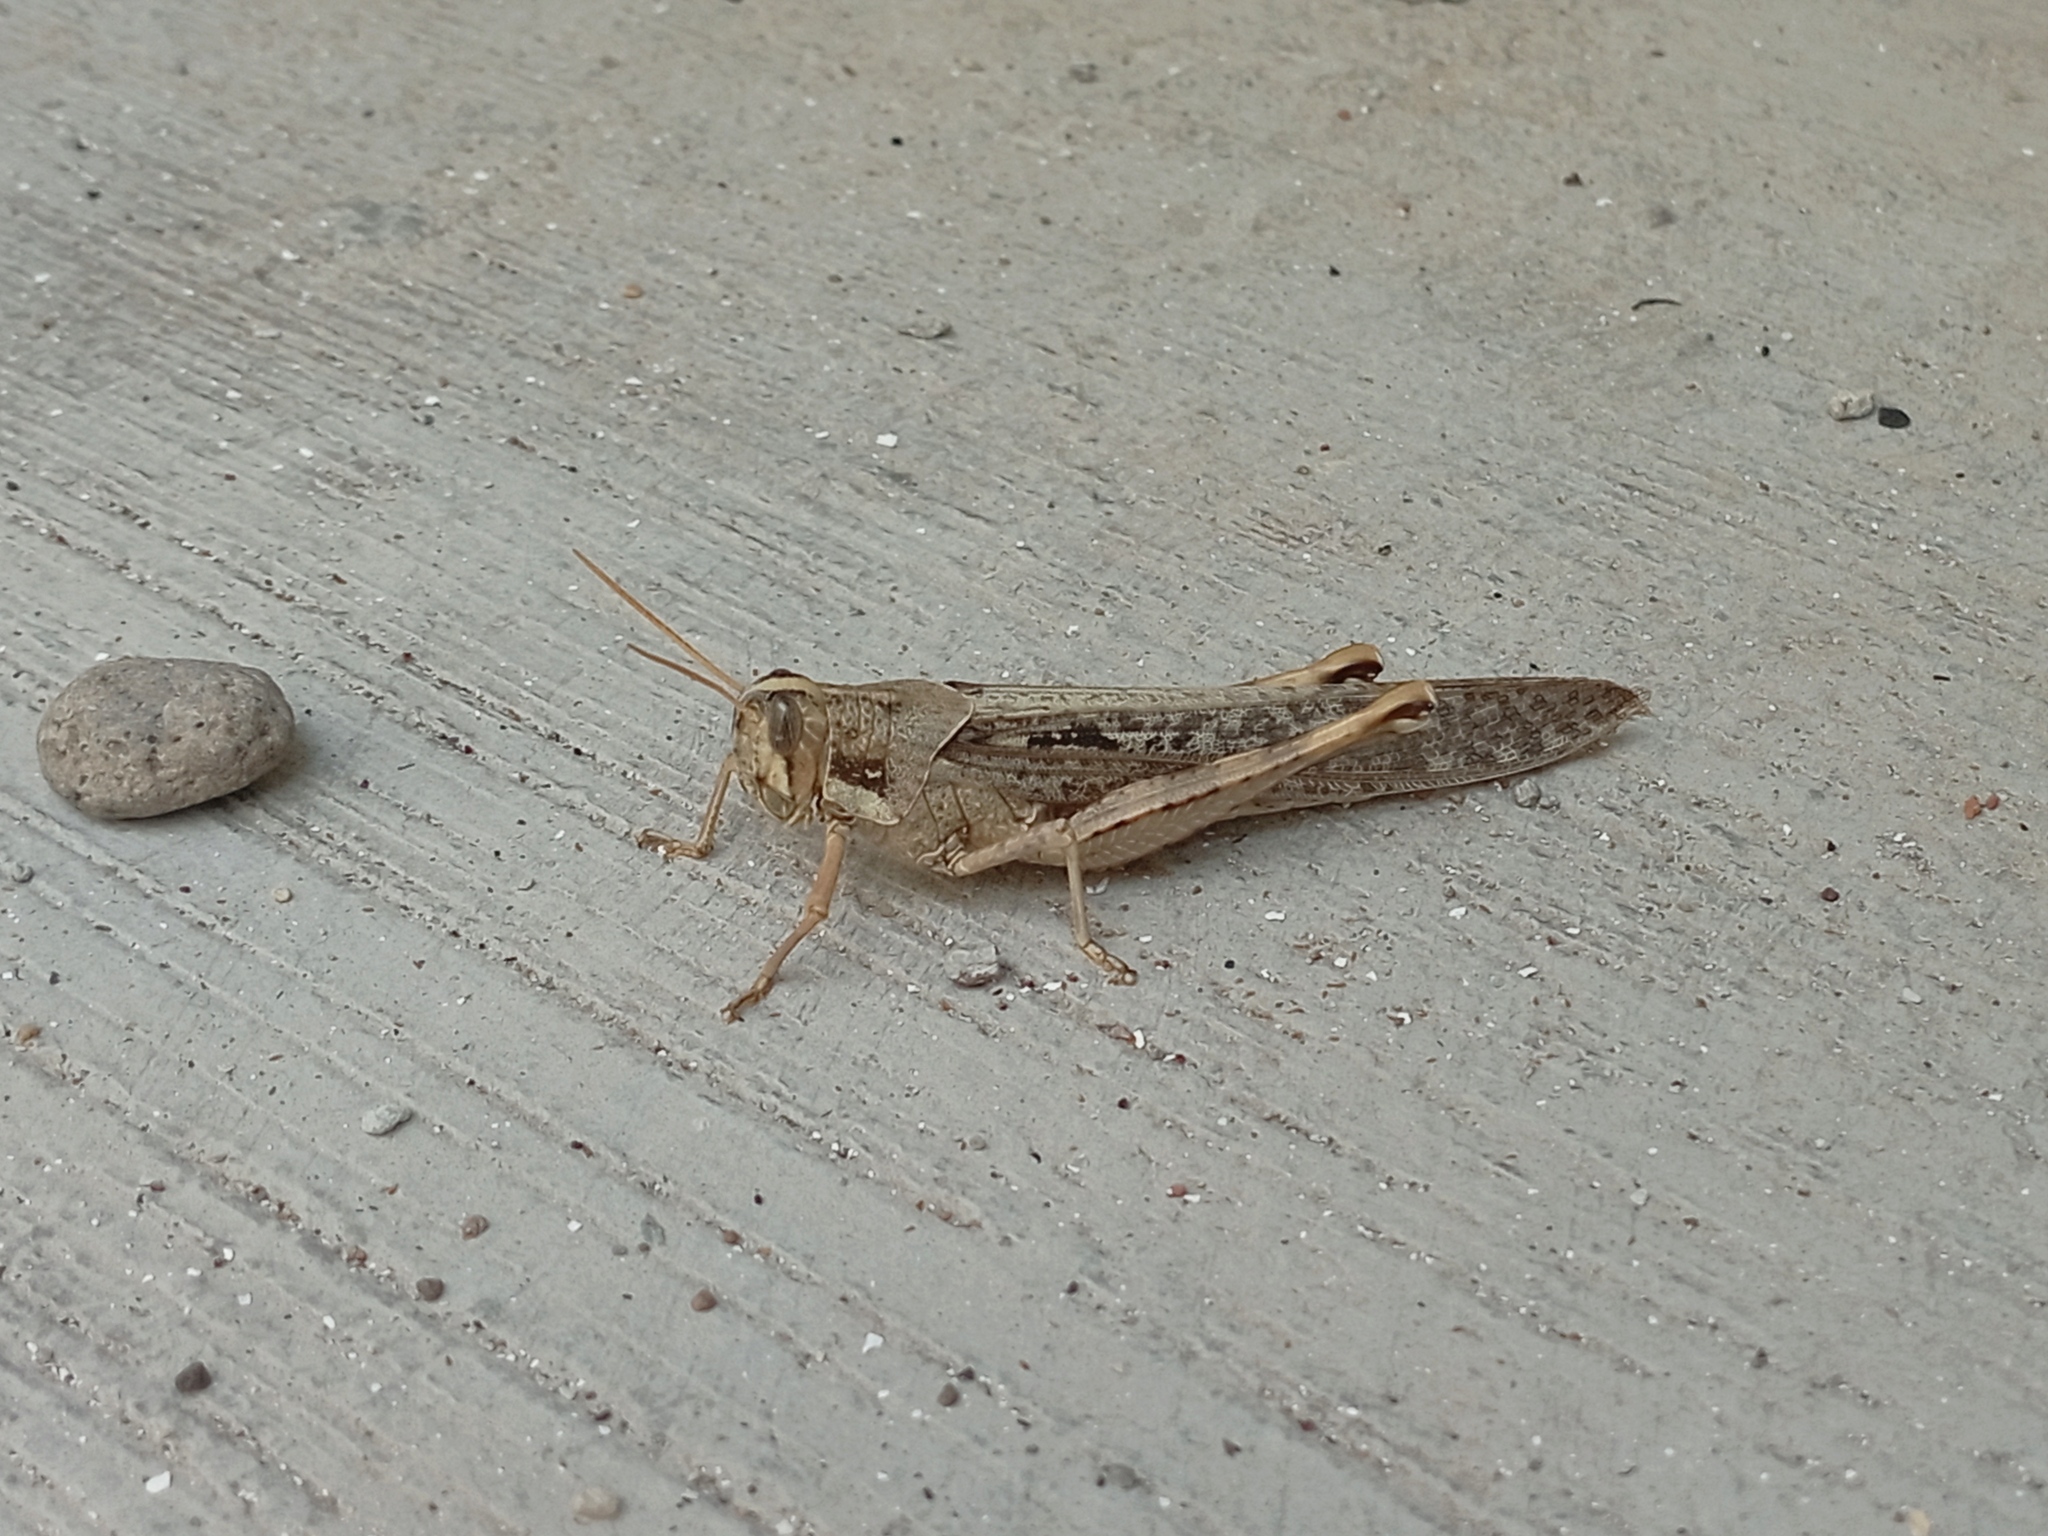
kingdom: Animalia
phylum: Arthropoda
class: Insecta
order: Orthoptera
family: Acrididae
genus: Schistocerca
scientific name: Schistocerca nitens
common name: Vagrant grasshopper
